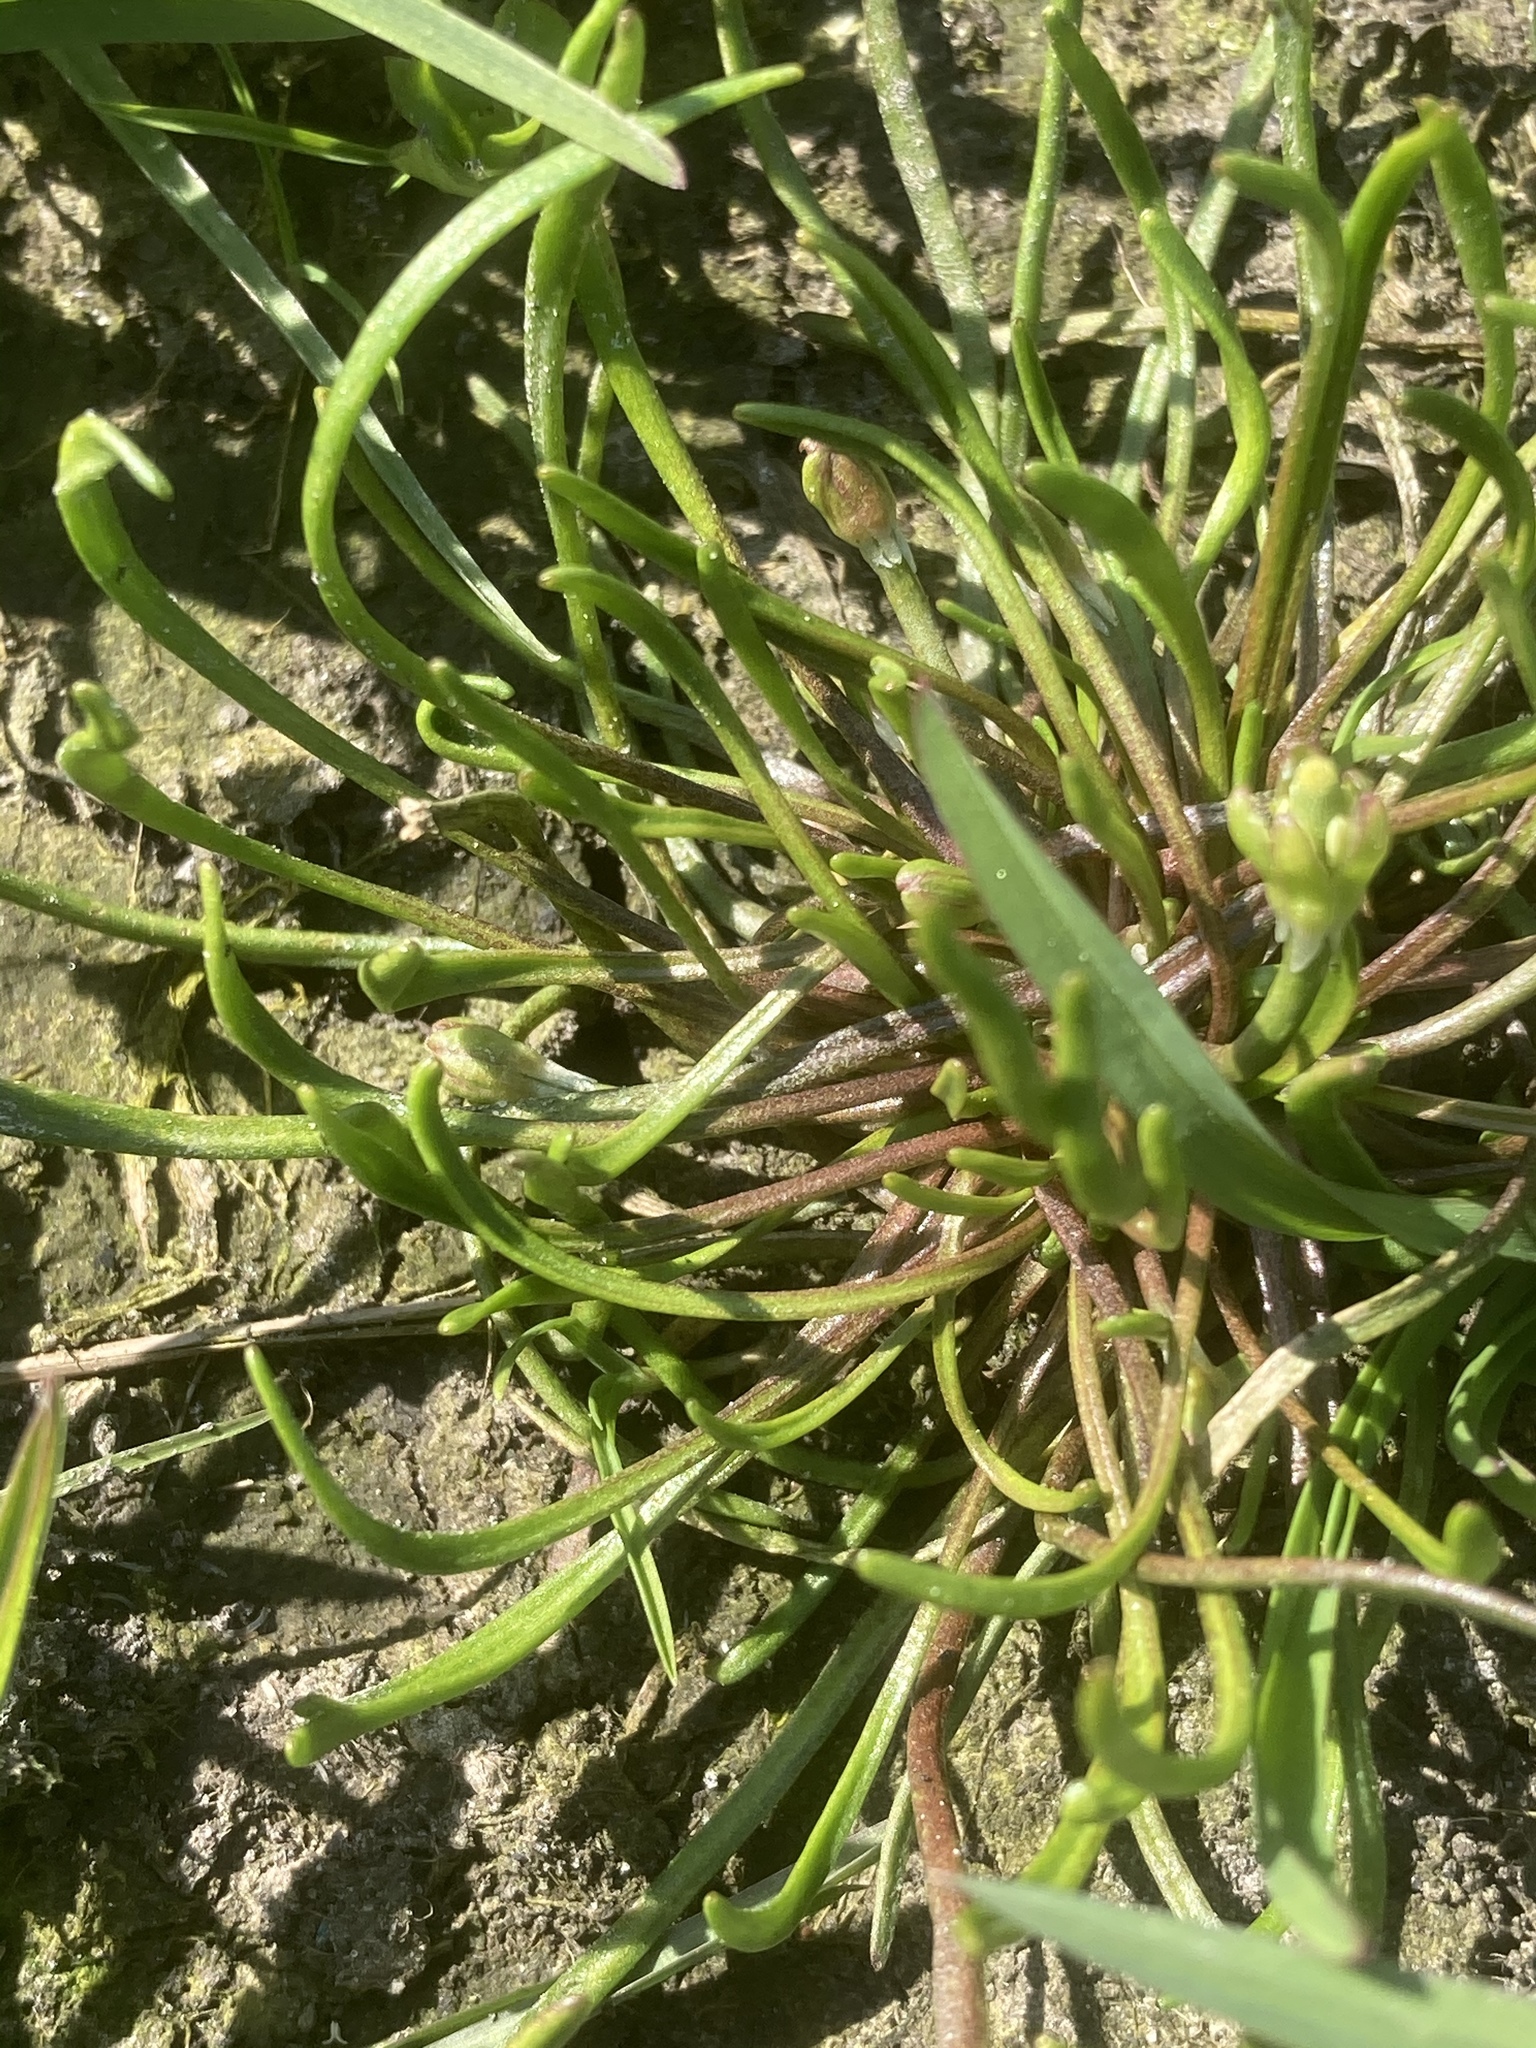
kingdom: Plantae
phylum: Tracheophyta
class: Magnoliopsida
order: Ranunculales
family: Ranunculaceae
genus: Myosurus
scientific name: Myosurus minimus
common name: Mousetail
